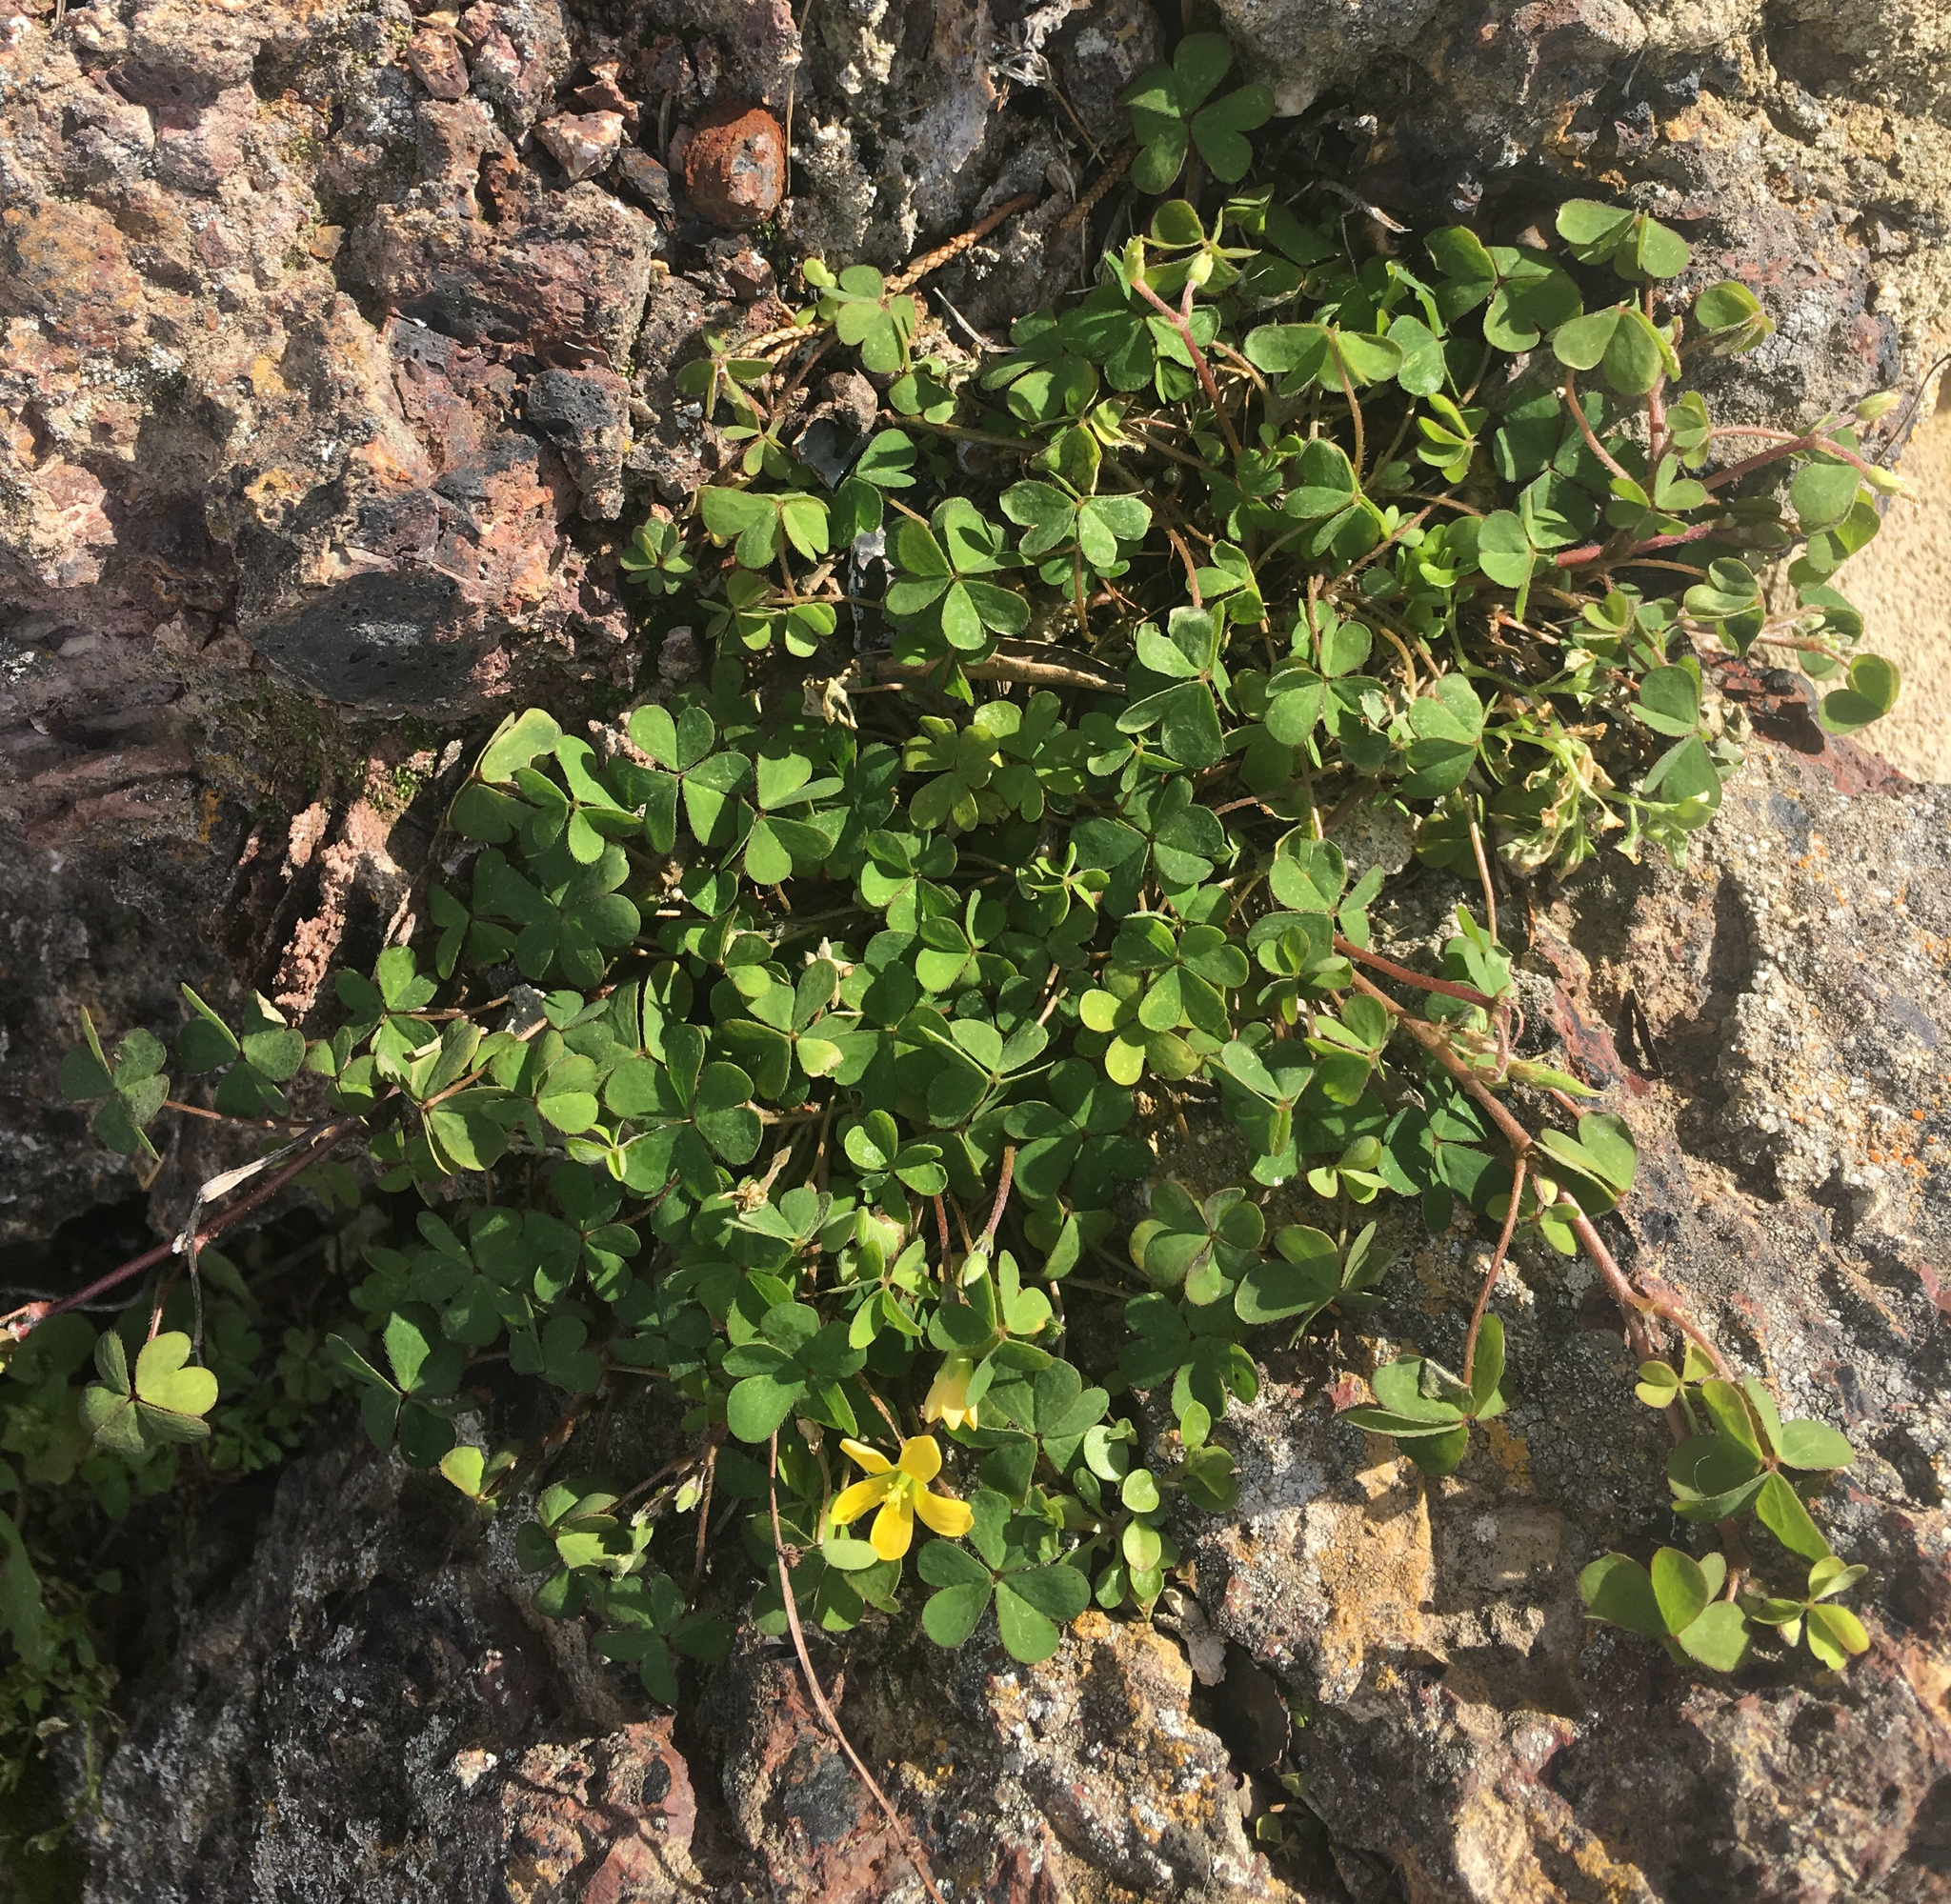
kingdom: Plantae
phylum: Tracheophyta
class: Magnoliopsida
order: Oxalidales
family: Oxalidaceae
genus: Oxalis
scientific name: Oxalis corniculata
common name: Procumbent yellow-sorrel
